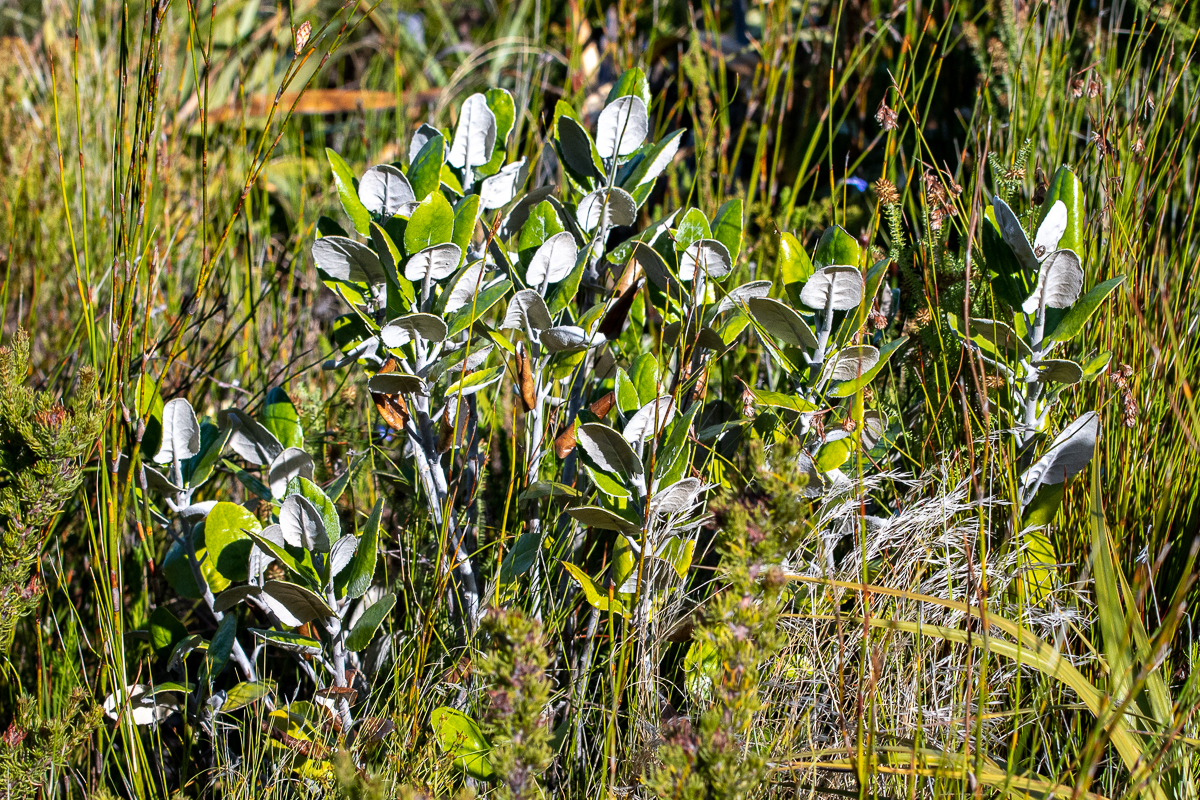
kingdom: Plantae
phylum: Tracheophyta
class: Magnoliopsida
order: Apiales
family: Apiaceae
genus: Hermas
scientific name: Hermas villosa
